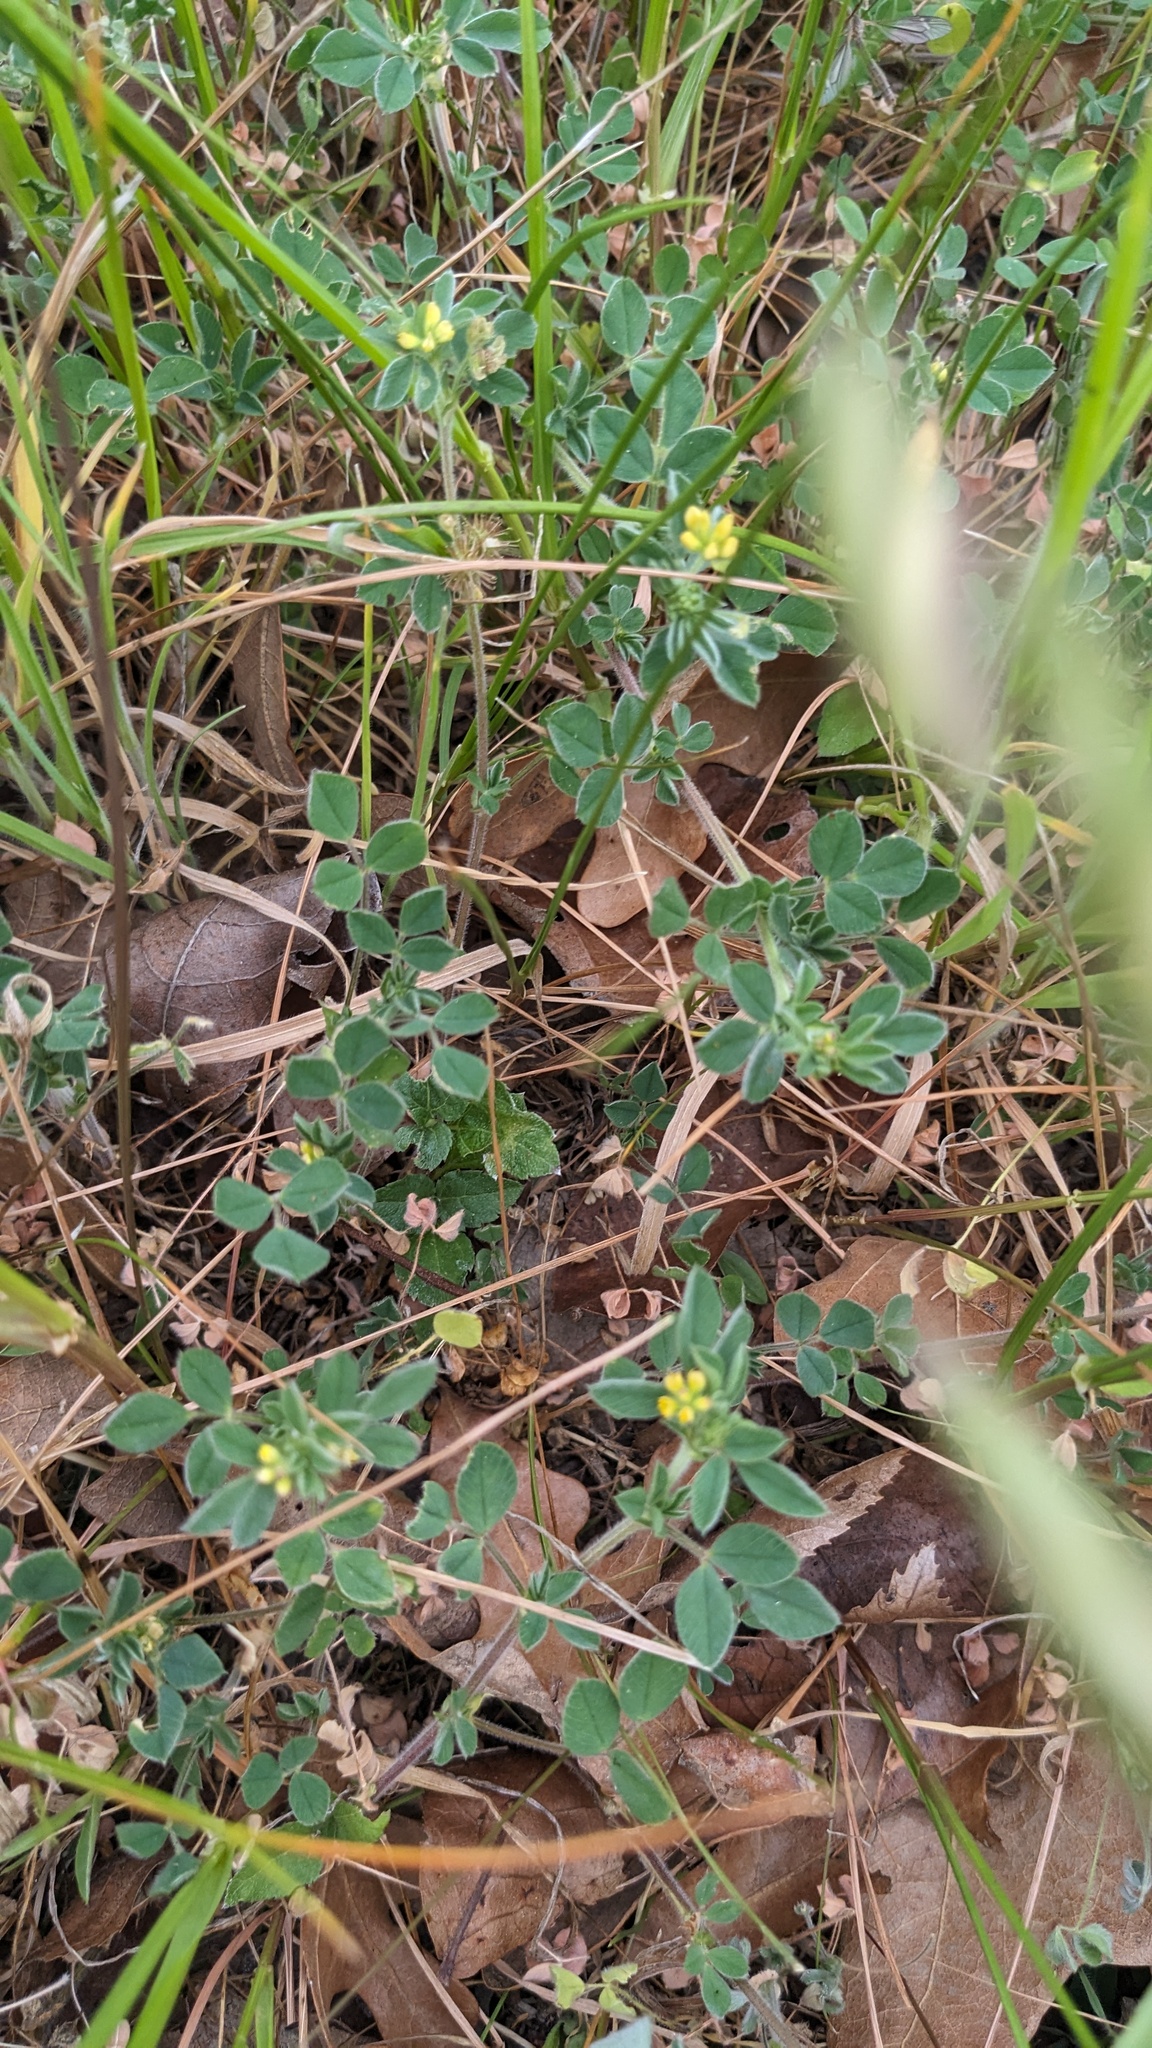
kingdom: Plantae
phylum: Tracheophyta
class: Magnoliopsida
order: Fabales
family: Fabaceae
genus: Medicago
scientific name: Medicago minima
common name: Little bur-clover
